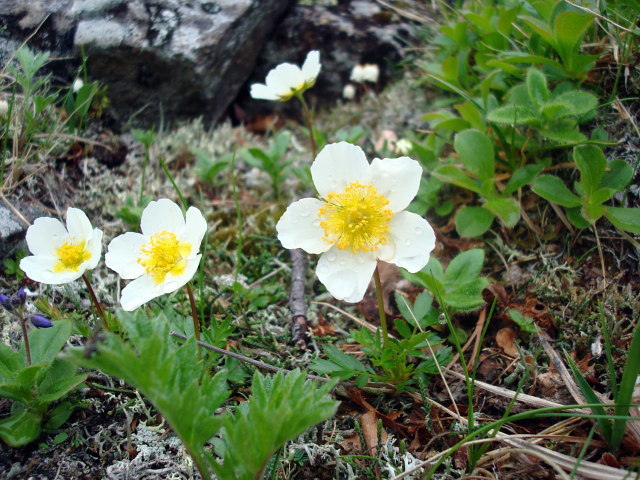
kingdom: Plantae
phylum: Tracheophyta
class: Magnoliopsida
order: Rosales
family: Rosaceae
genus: Geum
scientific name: Geum pentapetalum
